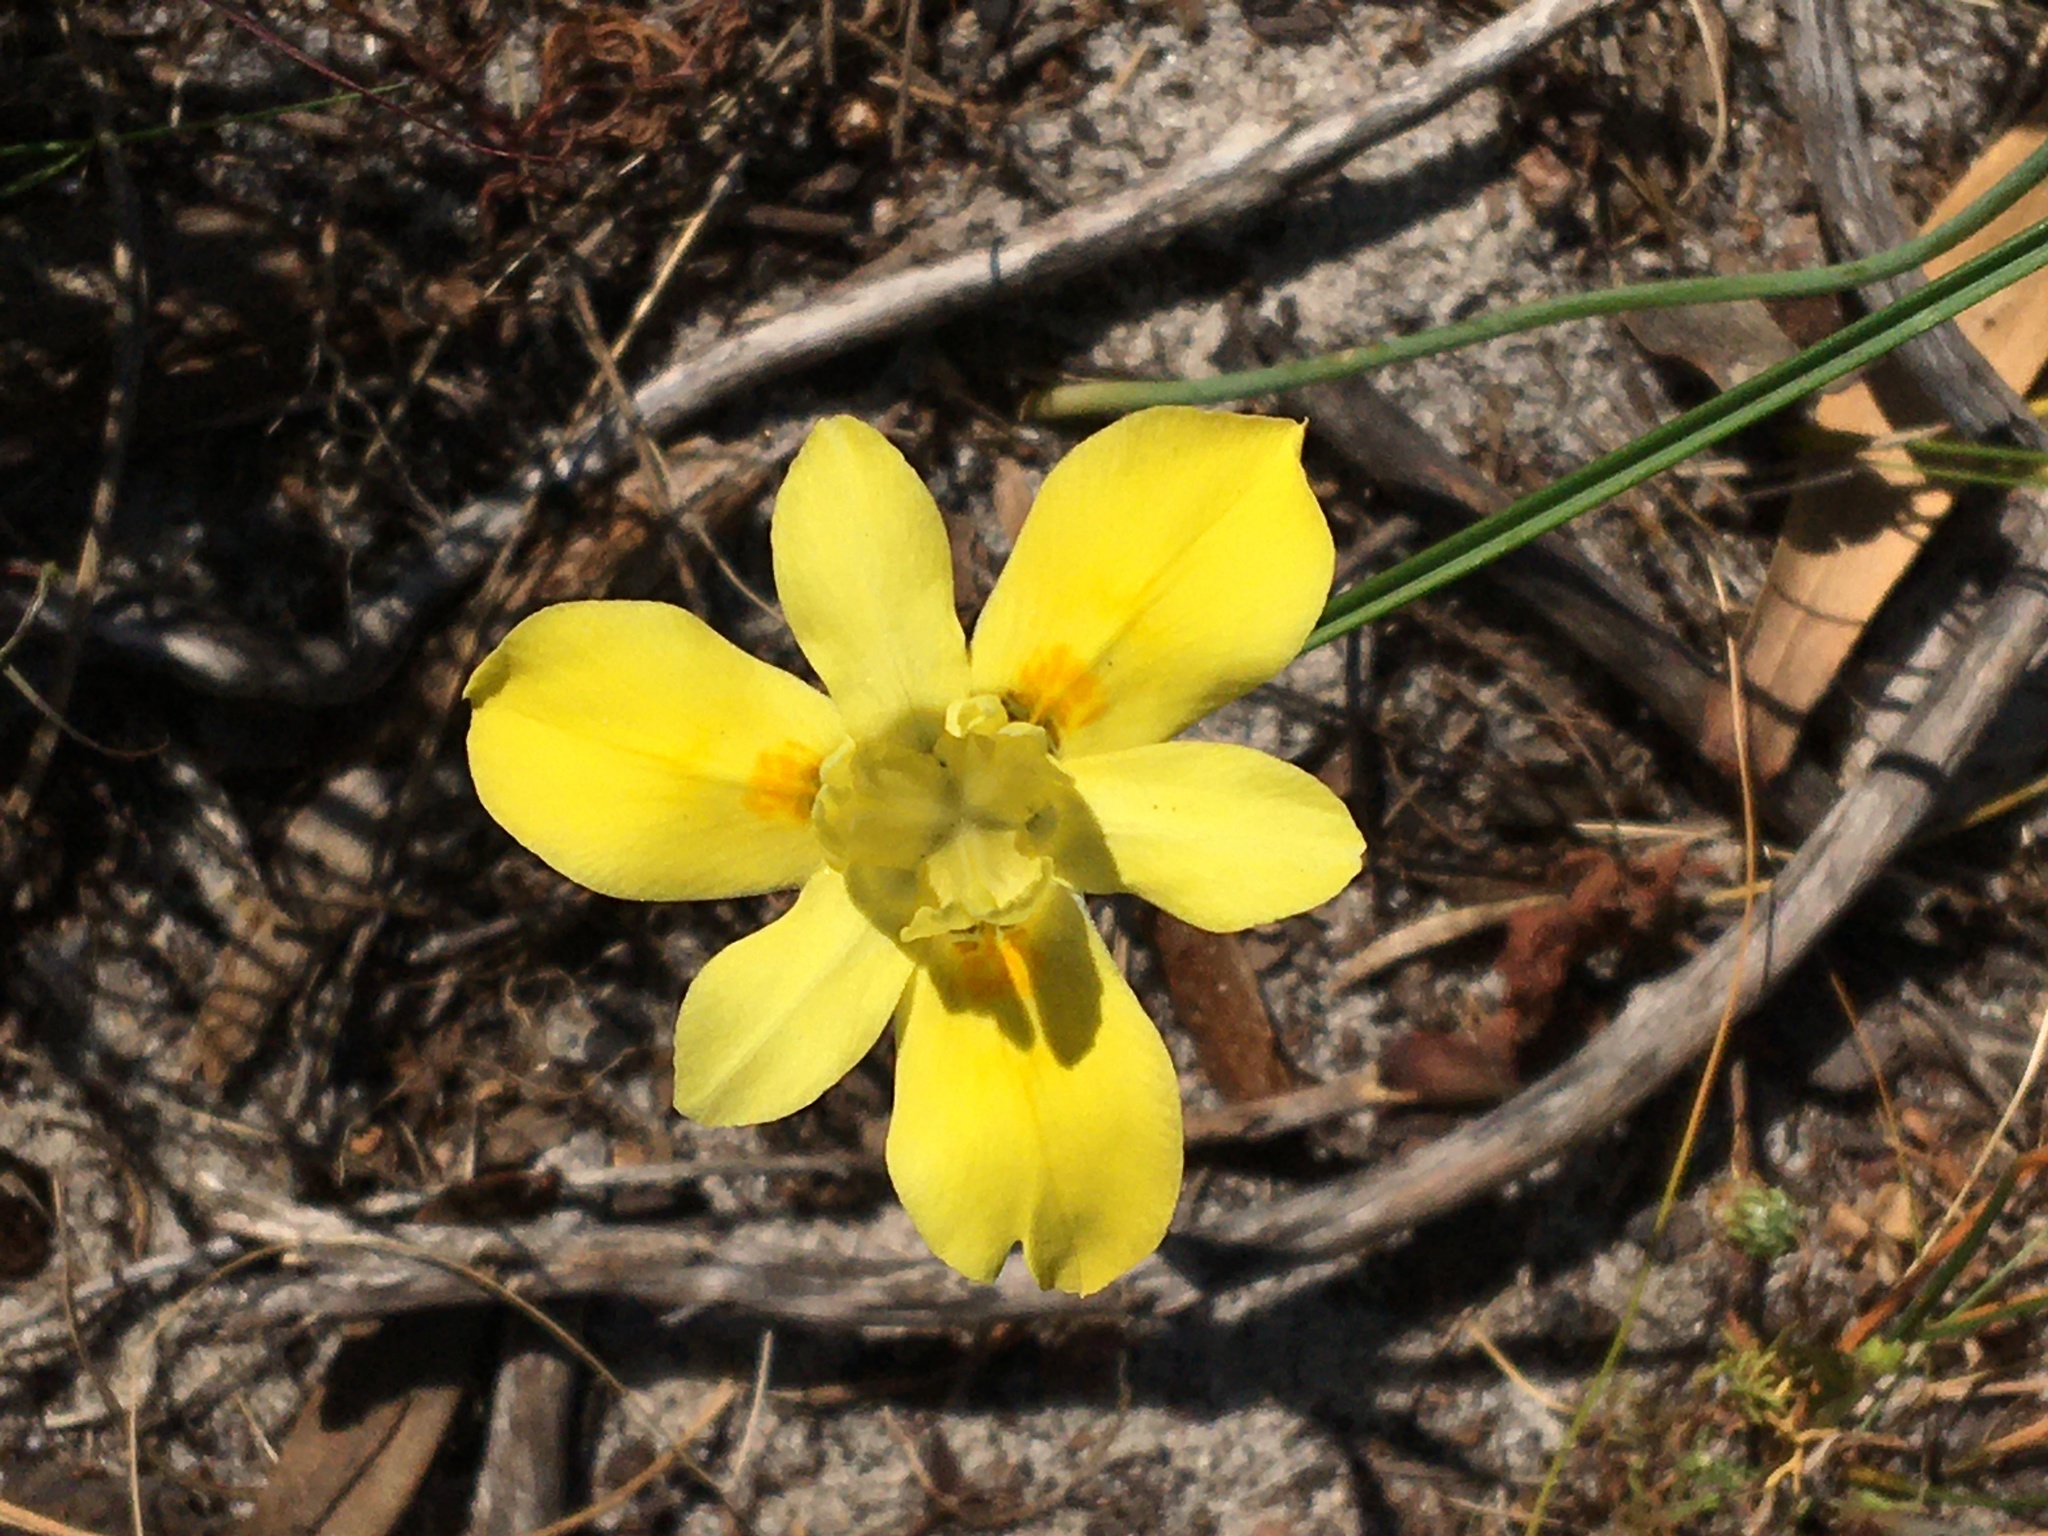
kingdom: Plantae
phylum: Tracheophyta
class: Liliopsida
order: Asparagales
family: Iridaceae
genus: Moraea
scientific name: Moraea fugax
